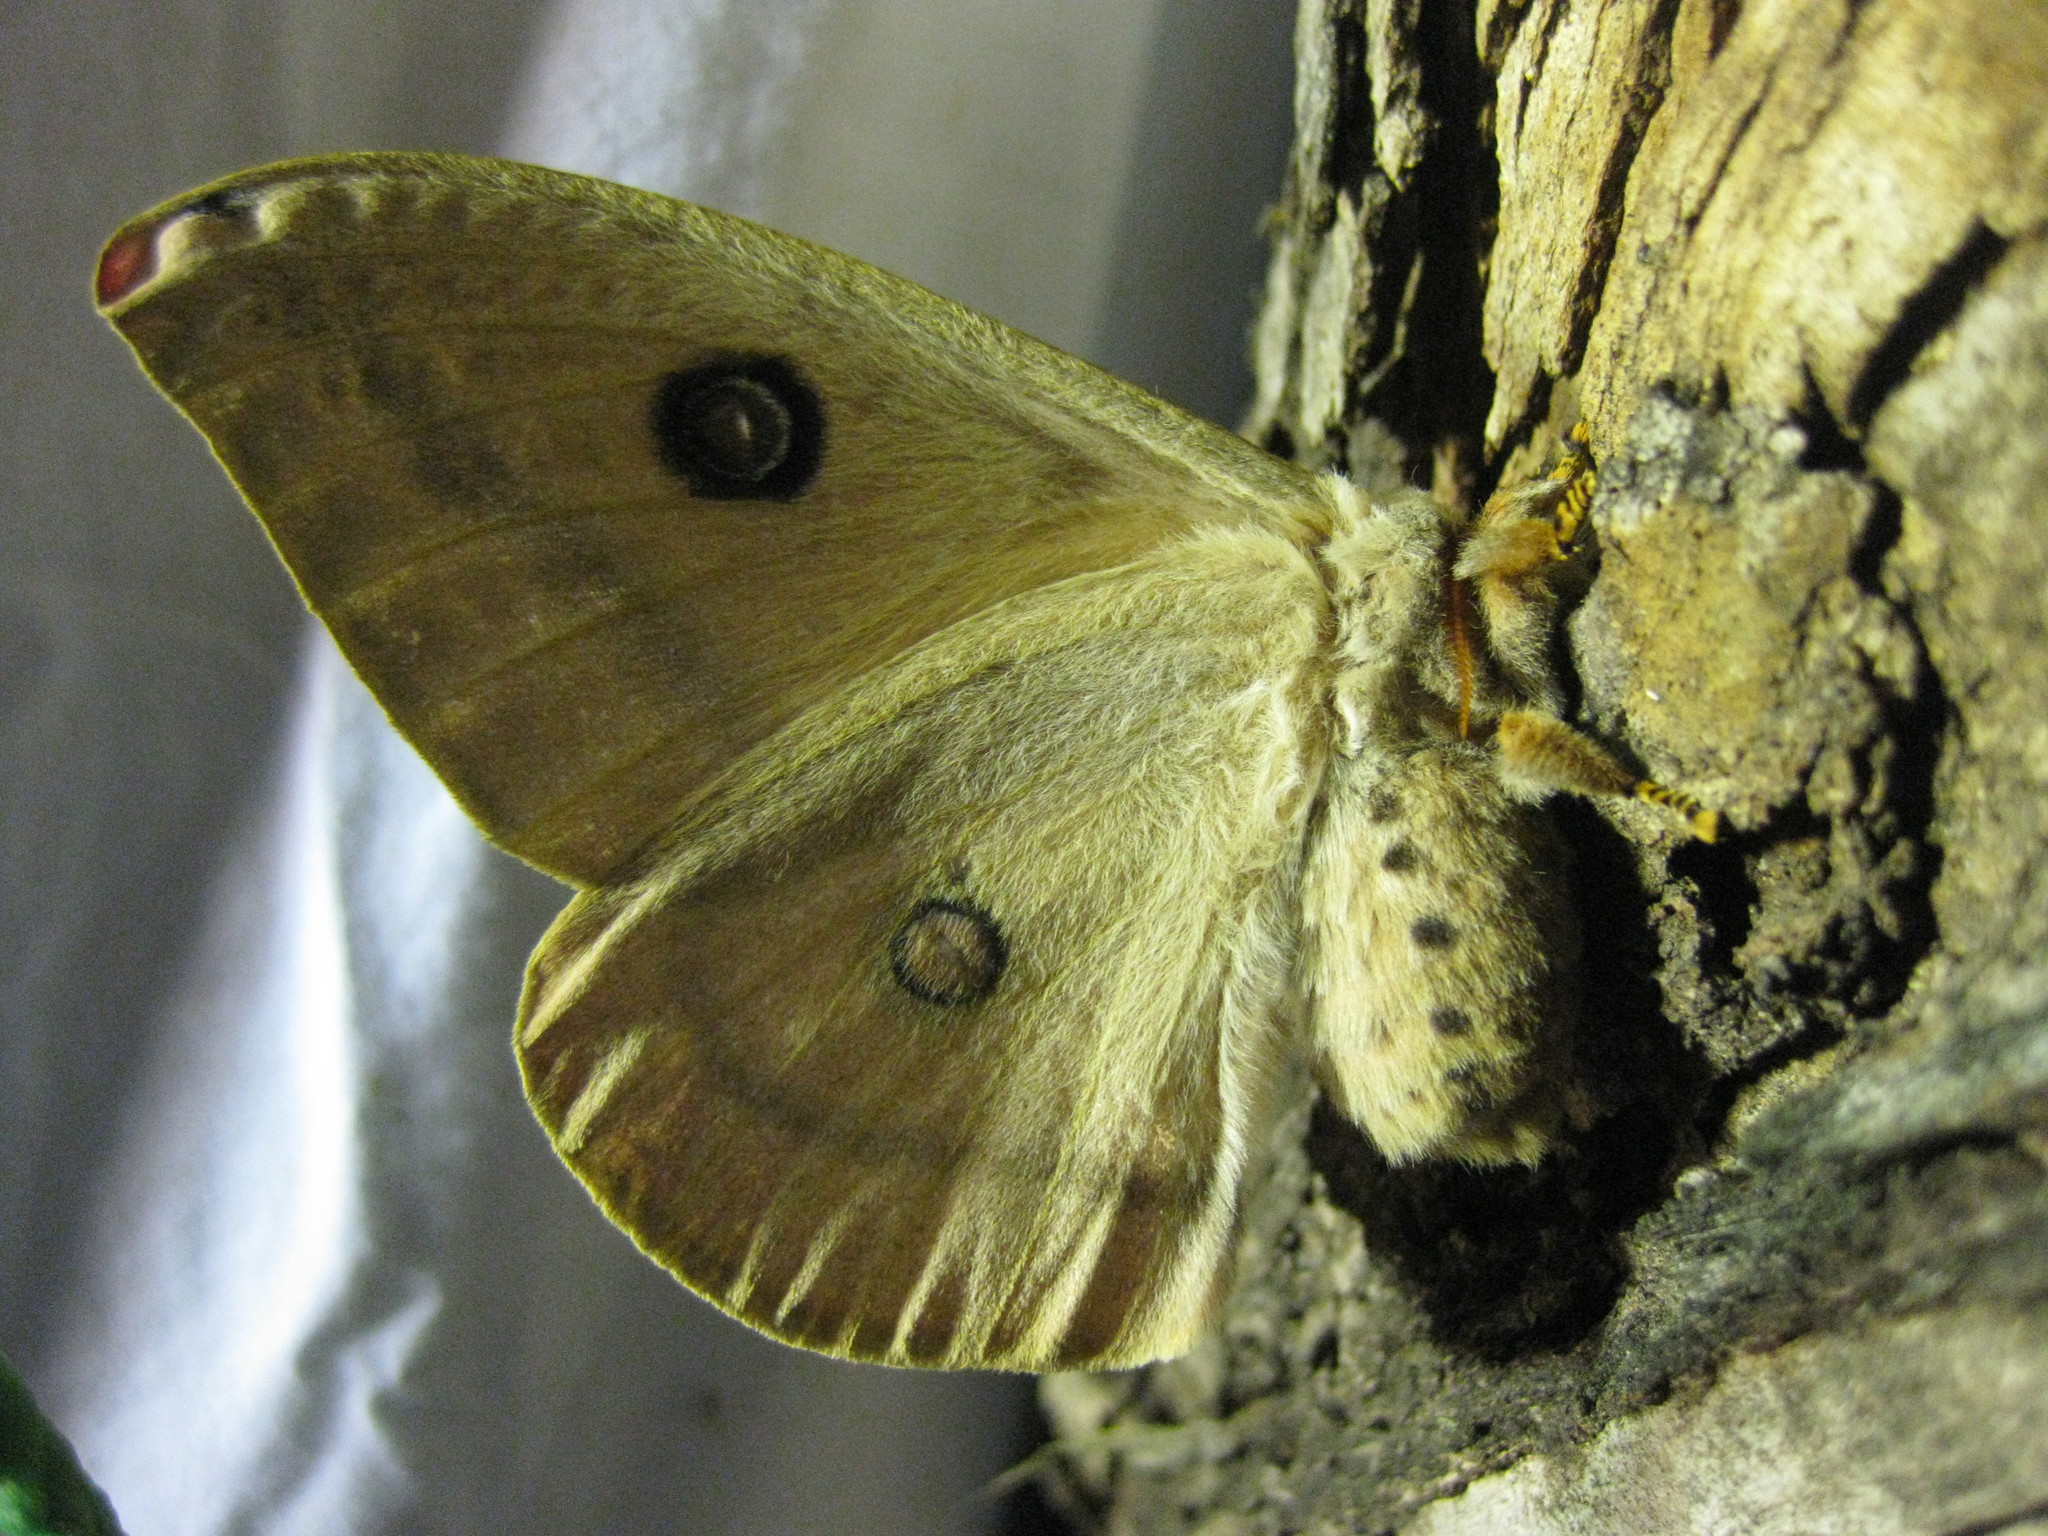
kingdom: Animalia
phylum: Arthropoda
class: Insecta
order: Lepidoptera
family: Saturniidae
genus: Opodiphthera
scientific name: Opodiphthera
